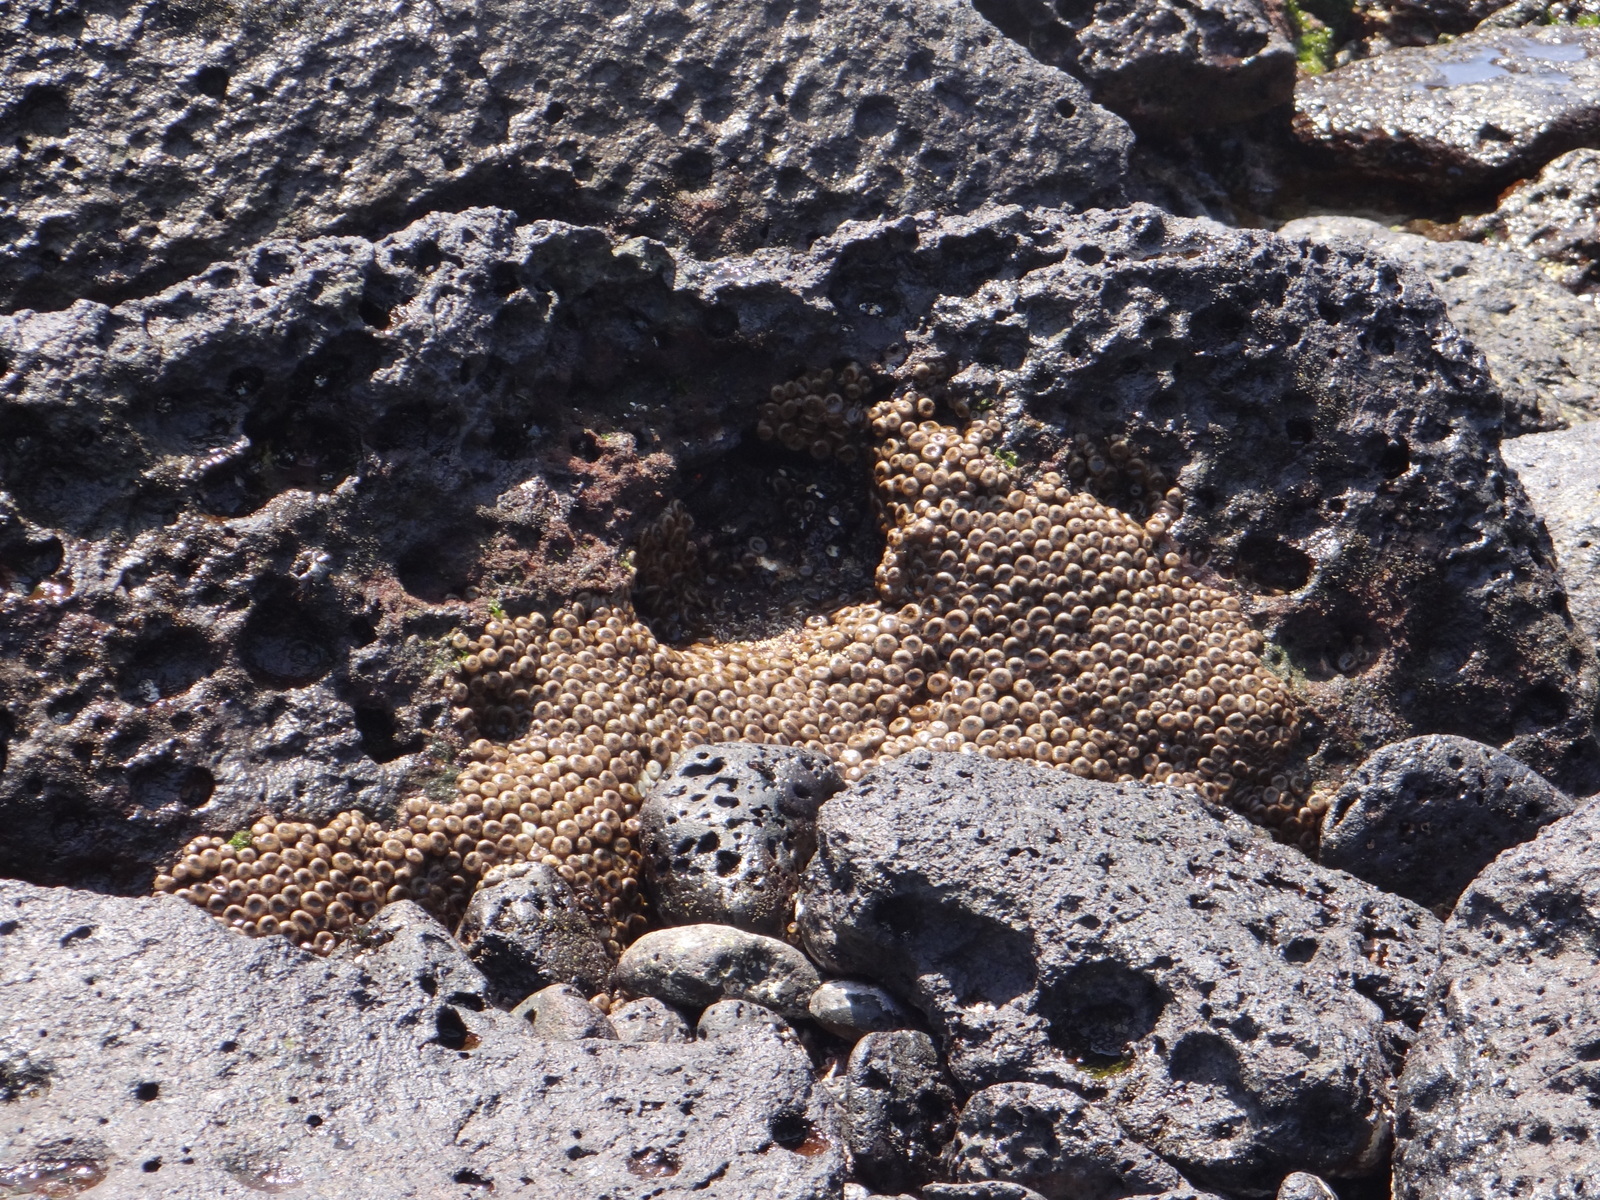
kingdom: Animalia
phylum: Cnidaria
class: Anthozoa
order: Zoantharia
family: Sphenopidae
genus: Palythoa
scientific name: Palythoa mutuki
